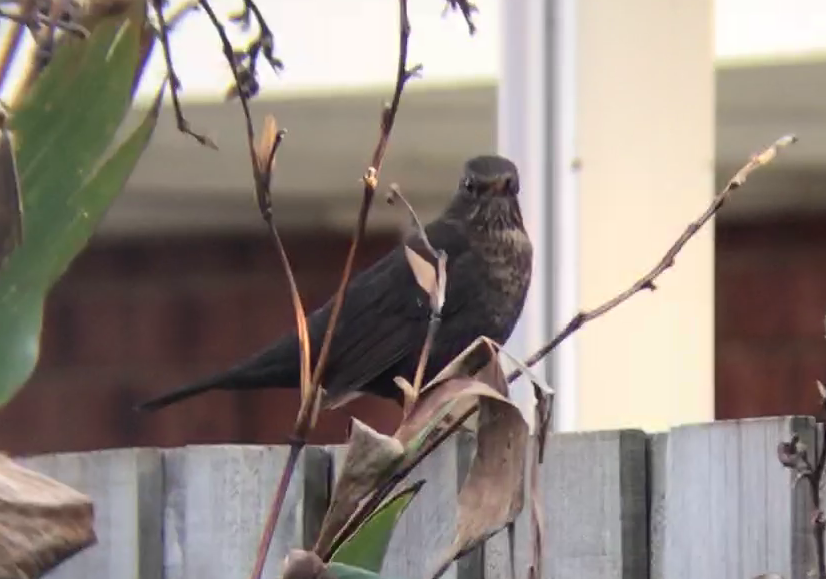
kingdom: Animalia
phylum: Chordata
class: Aves
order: Passeriformes
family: Turdidae
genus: Turdus
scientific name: Turdus merula
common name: Common blackbird
